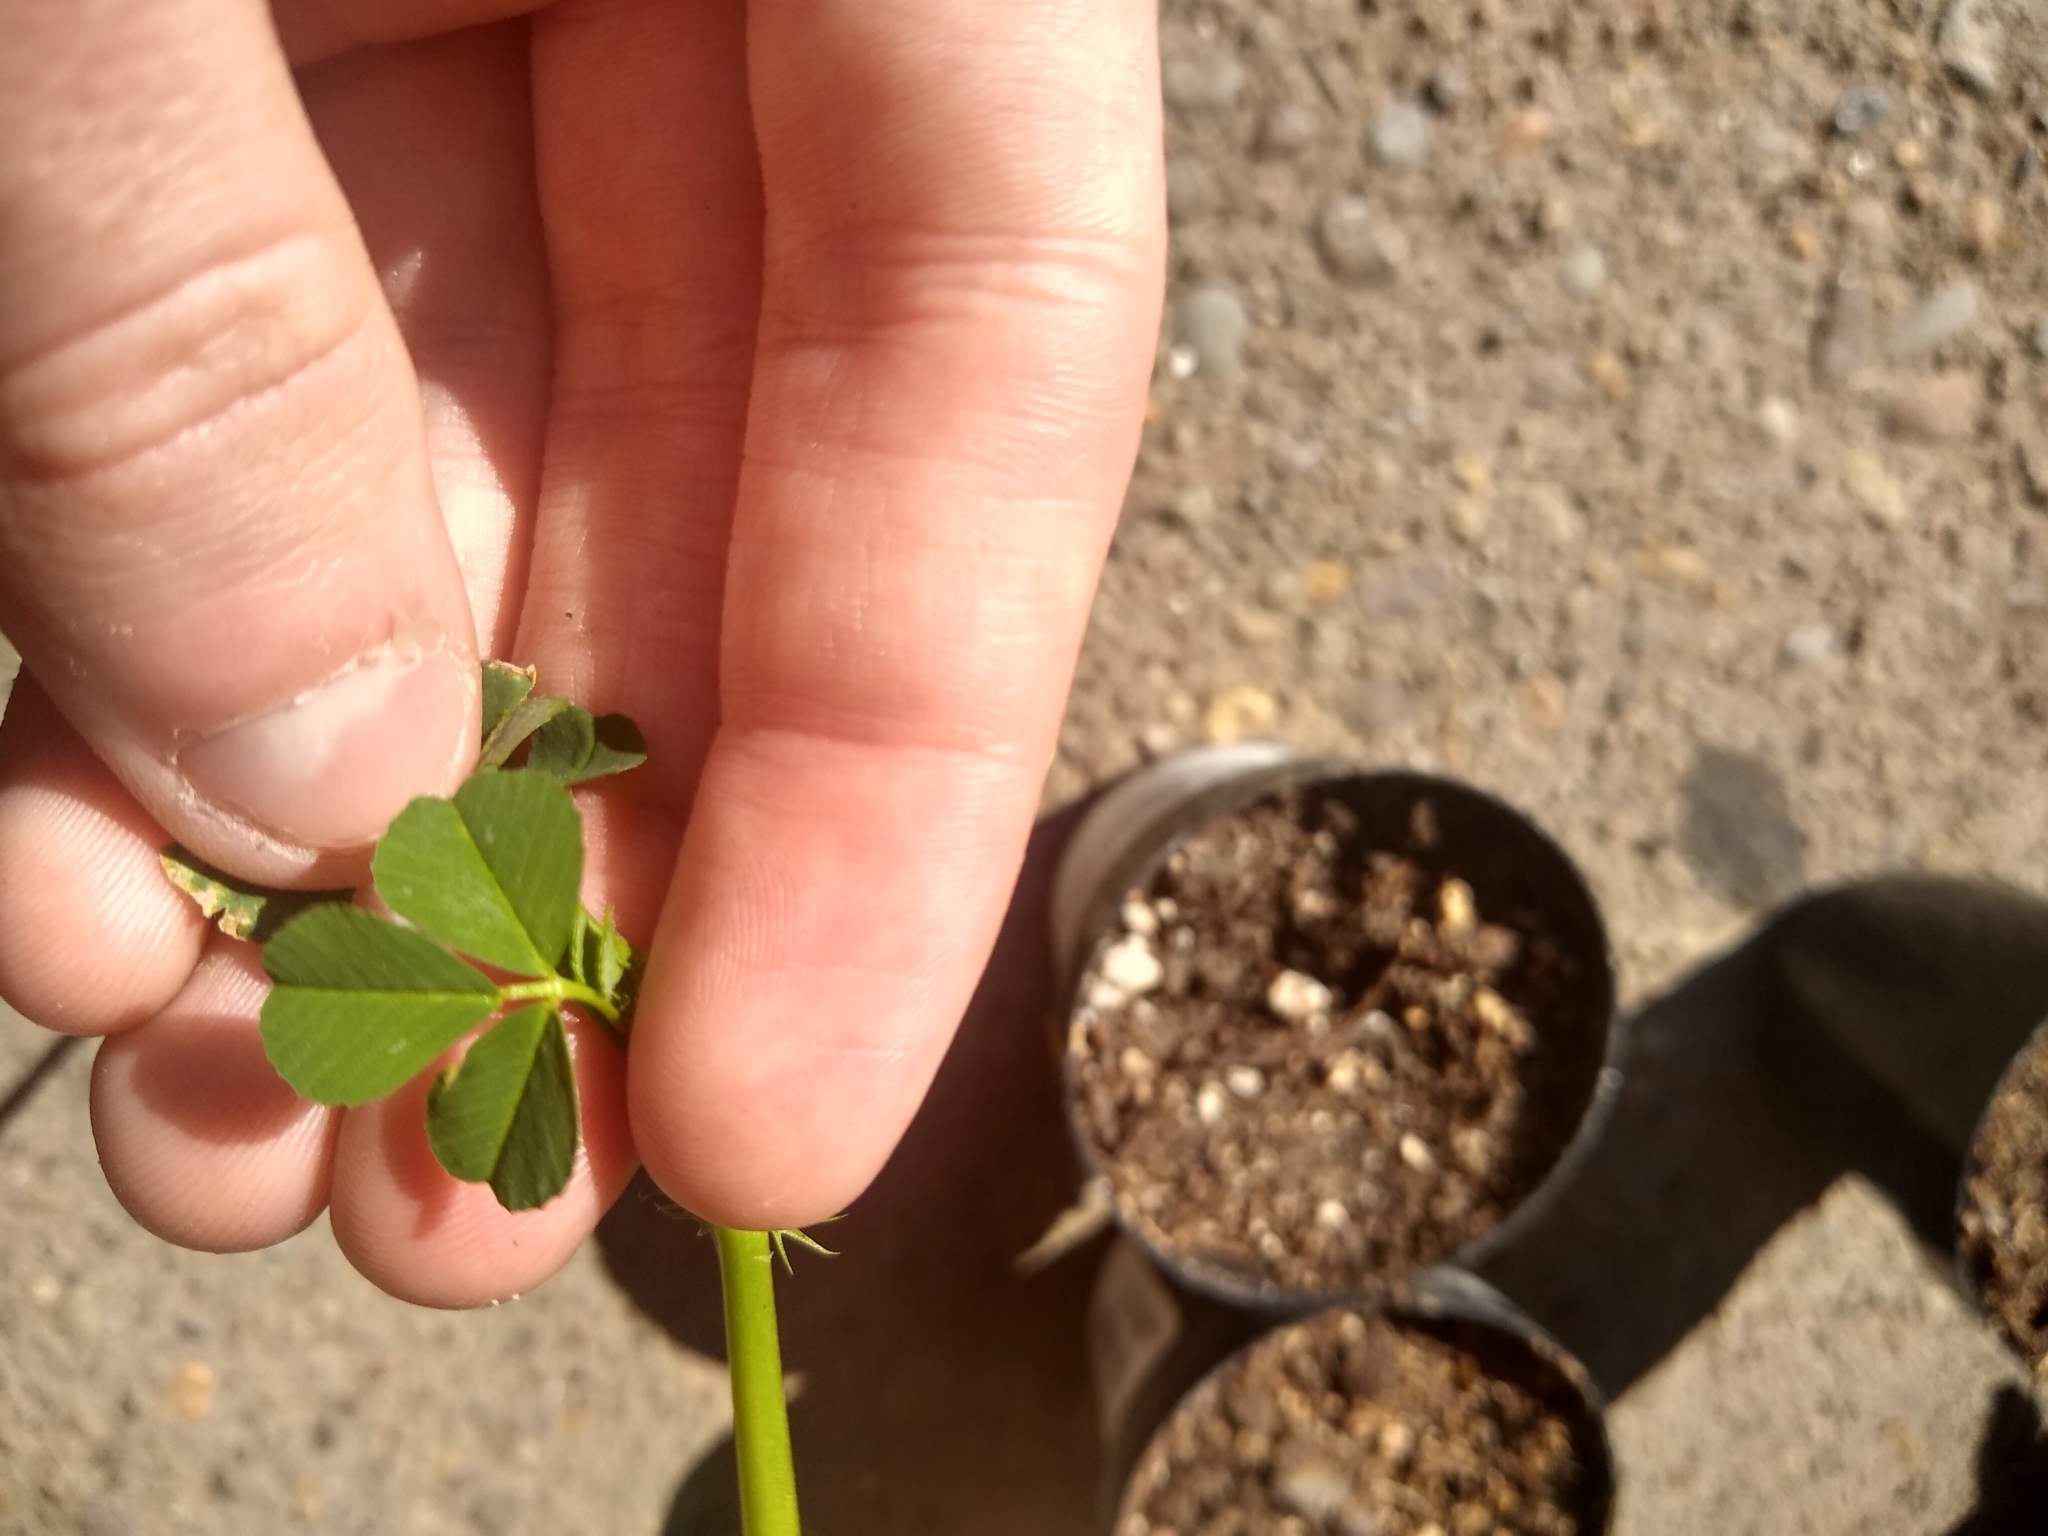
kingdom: Plantae
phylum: Tracheophyta
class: Magnoliopsida
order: Fabales
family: Fabaceae
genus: Medicago
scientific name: Medicago polymorpha
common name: Burclover
